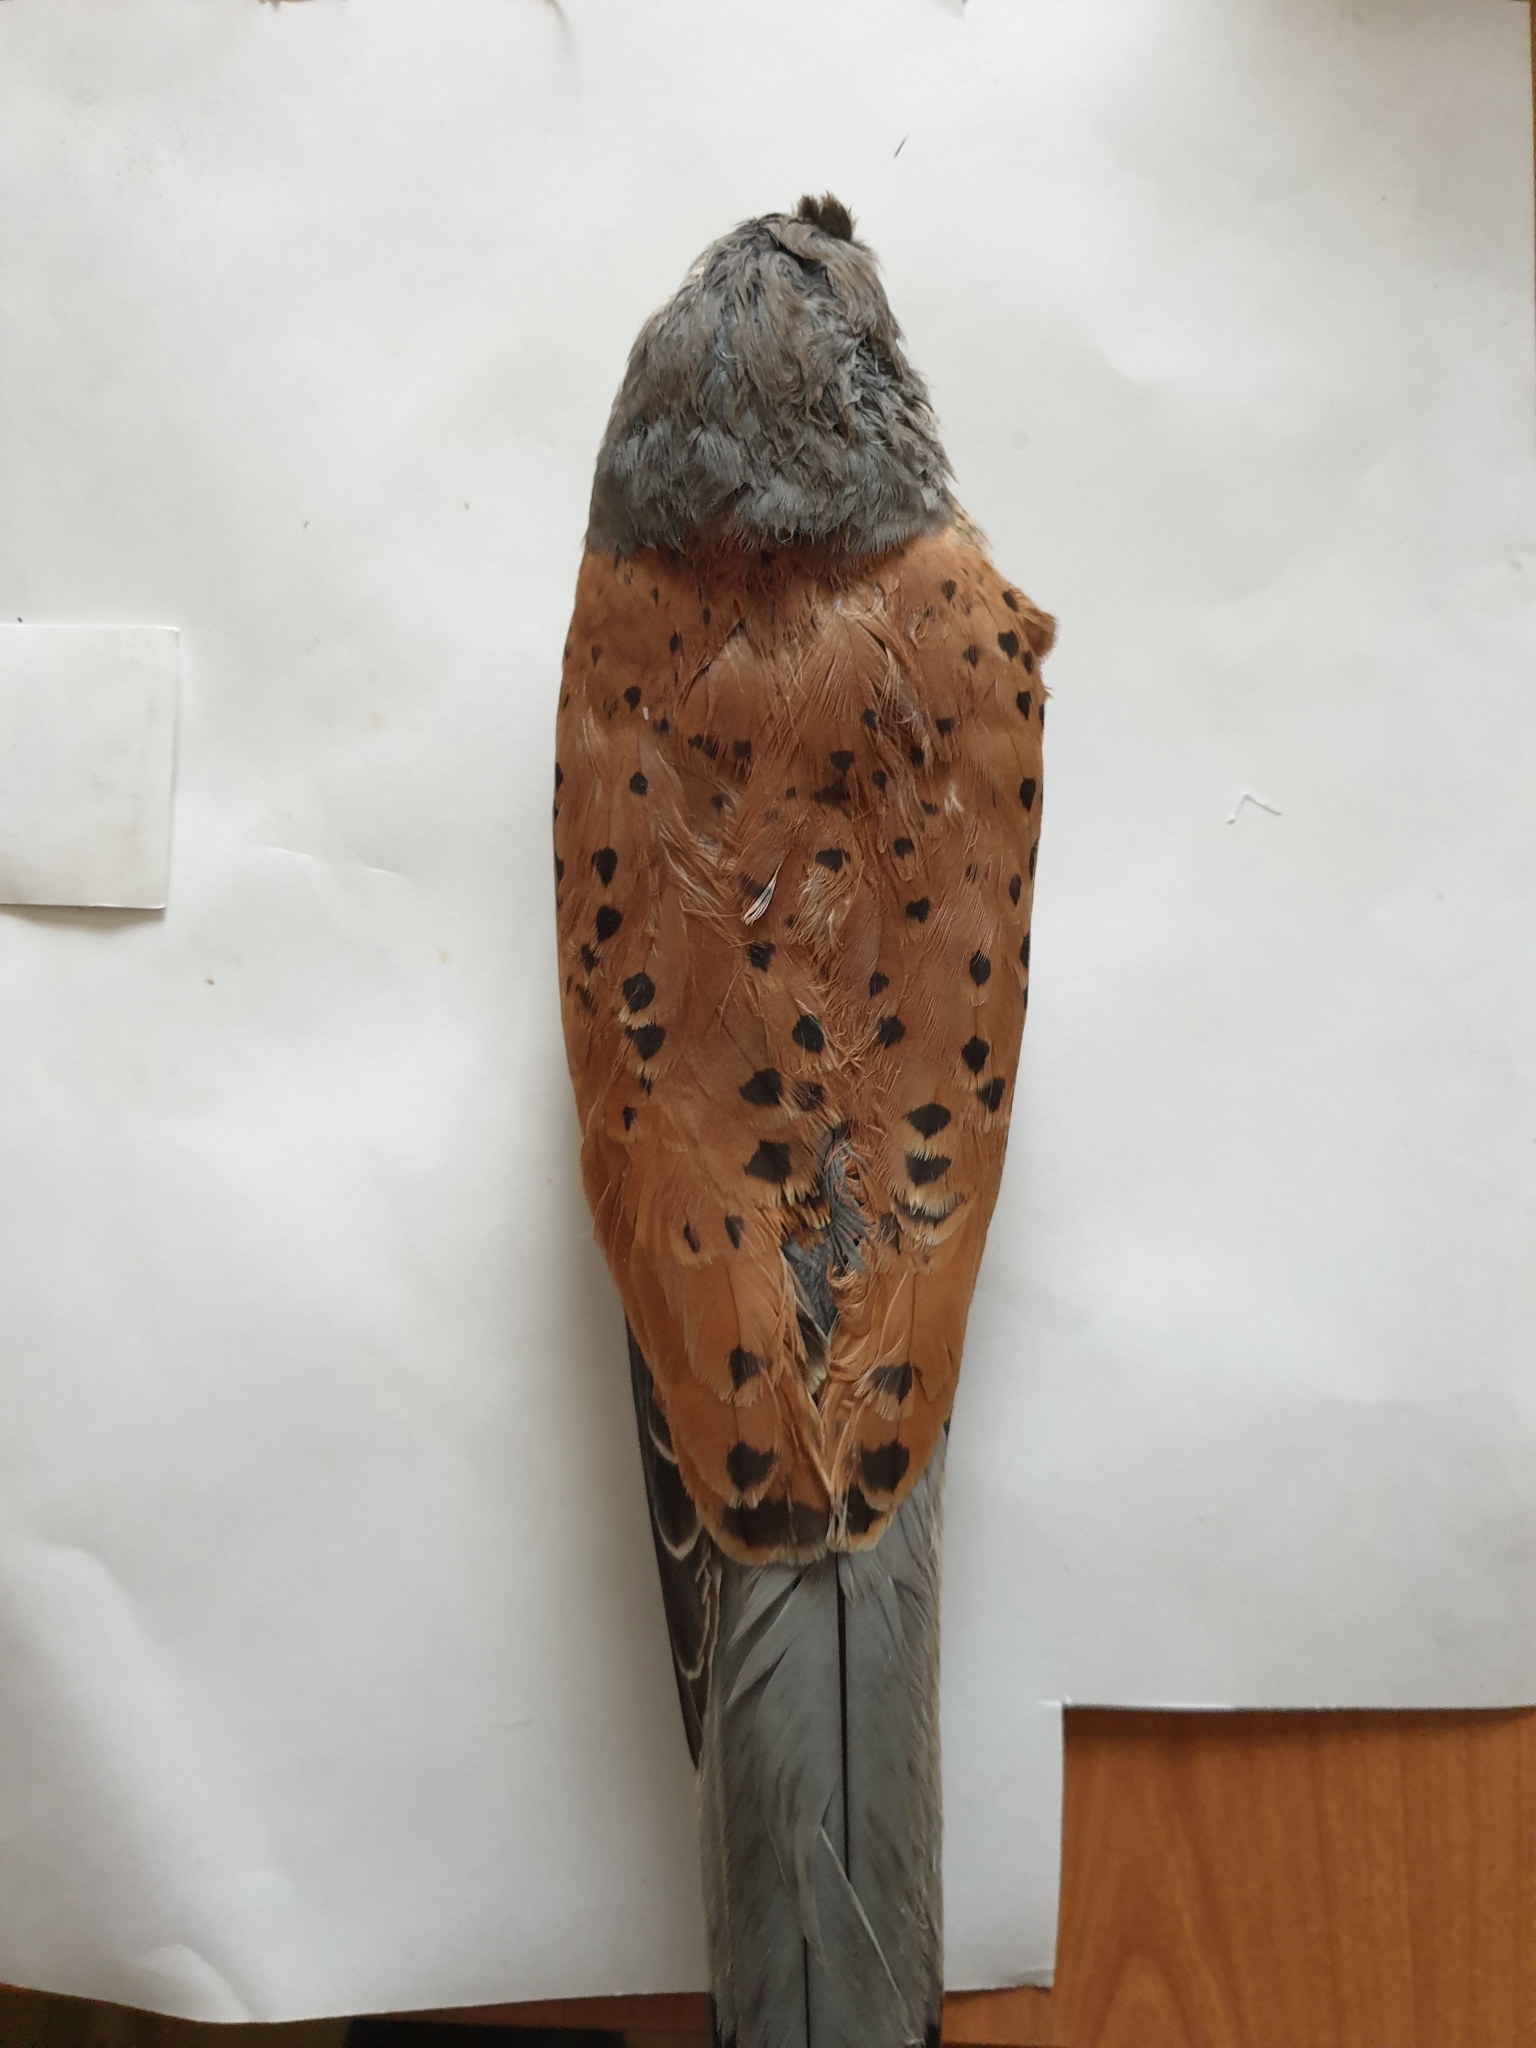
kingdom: Animalia
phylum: Chordata
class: Aves
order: Falconiformes
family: Falconidae
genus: Falco
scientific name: Falco tinnunculus
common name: Common kestrel
